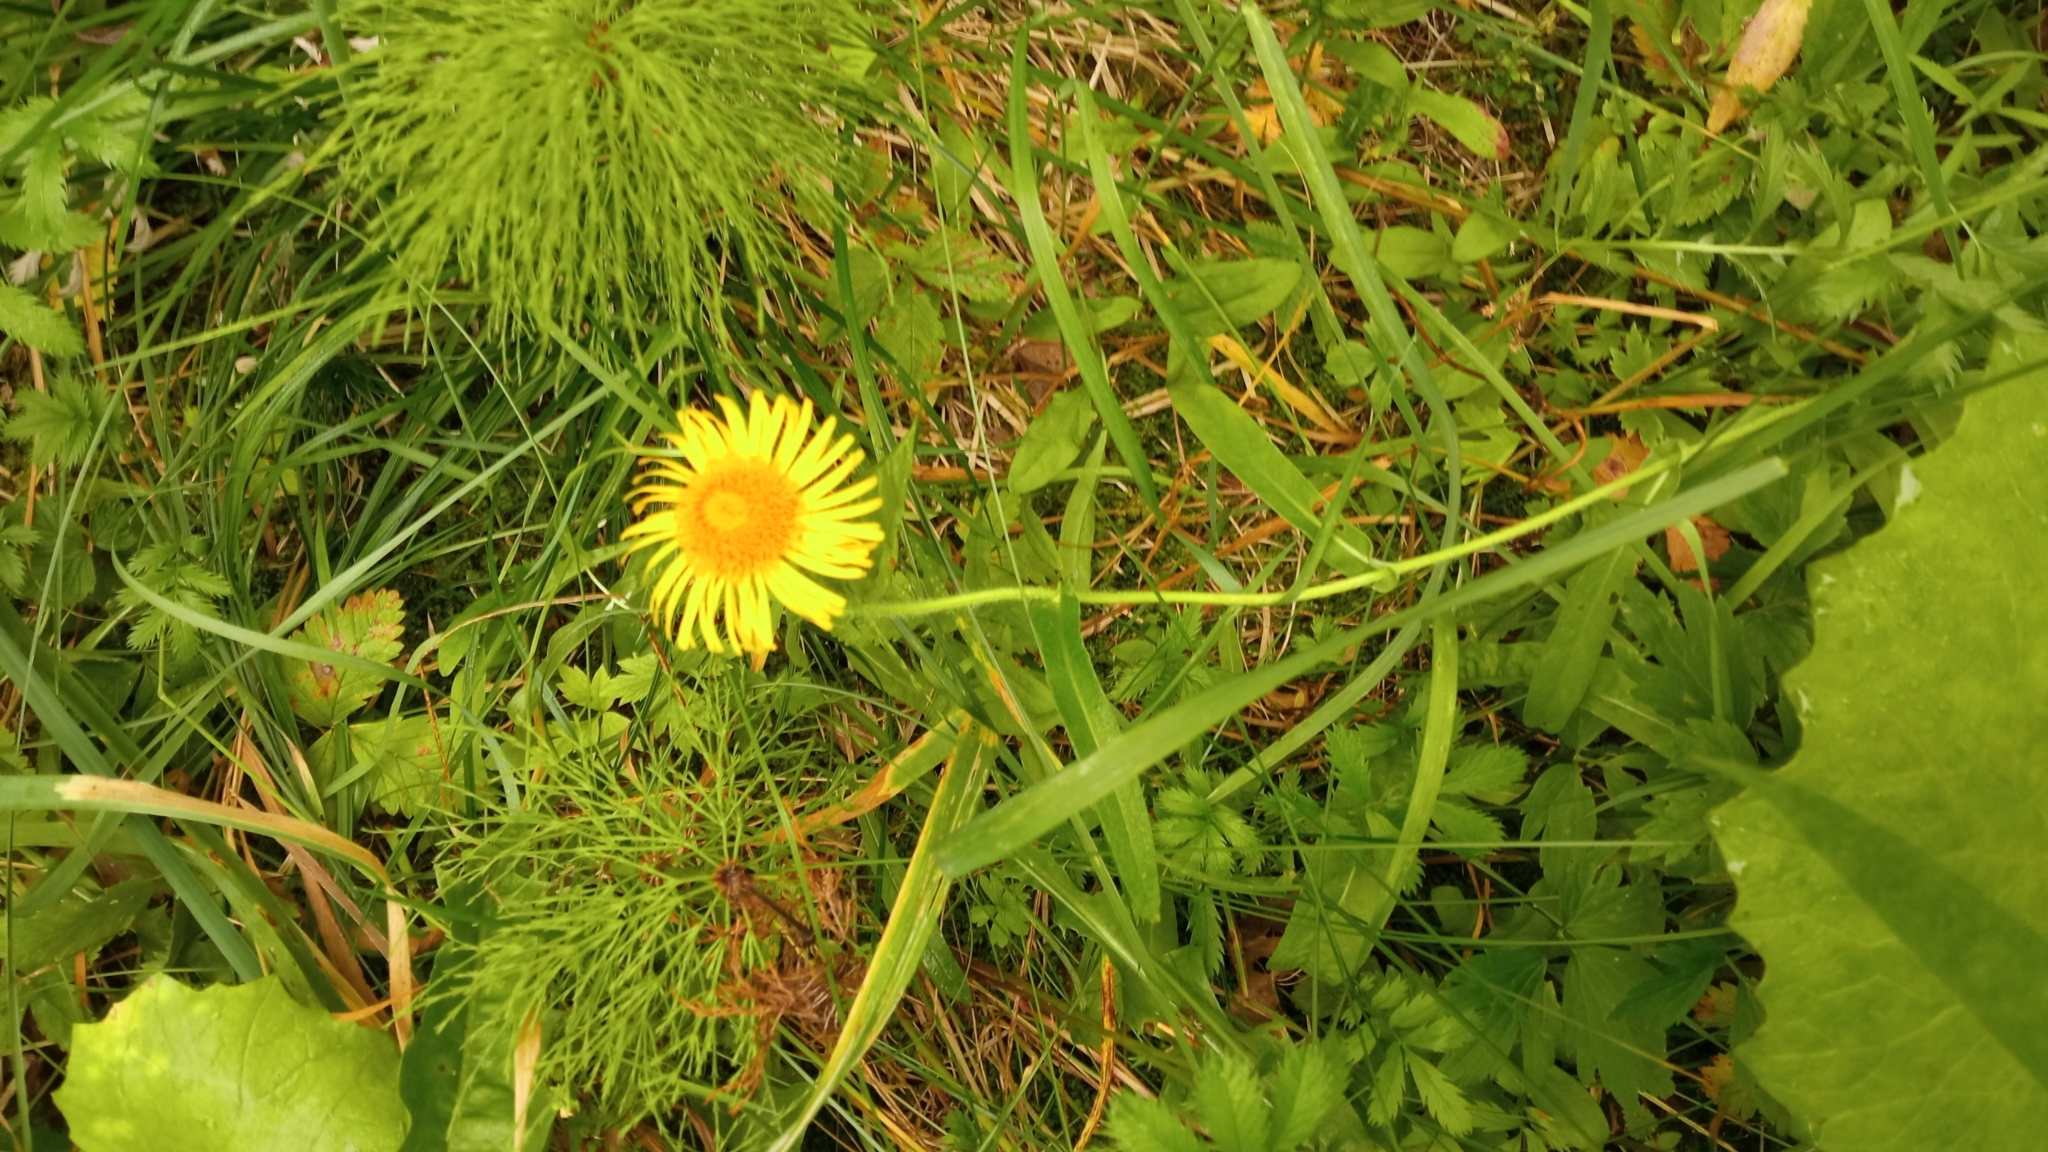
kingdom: Plantae
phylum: Tracheophyta
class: Magnoliopsida
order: Asterales
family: Asteraceae
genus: Pentanema
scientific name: Pentanema britannicum
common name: British elecampane
